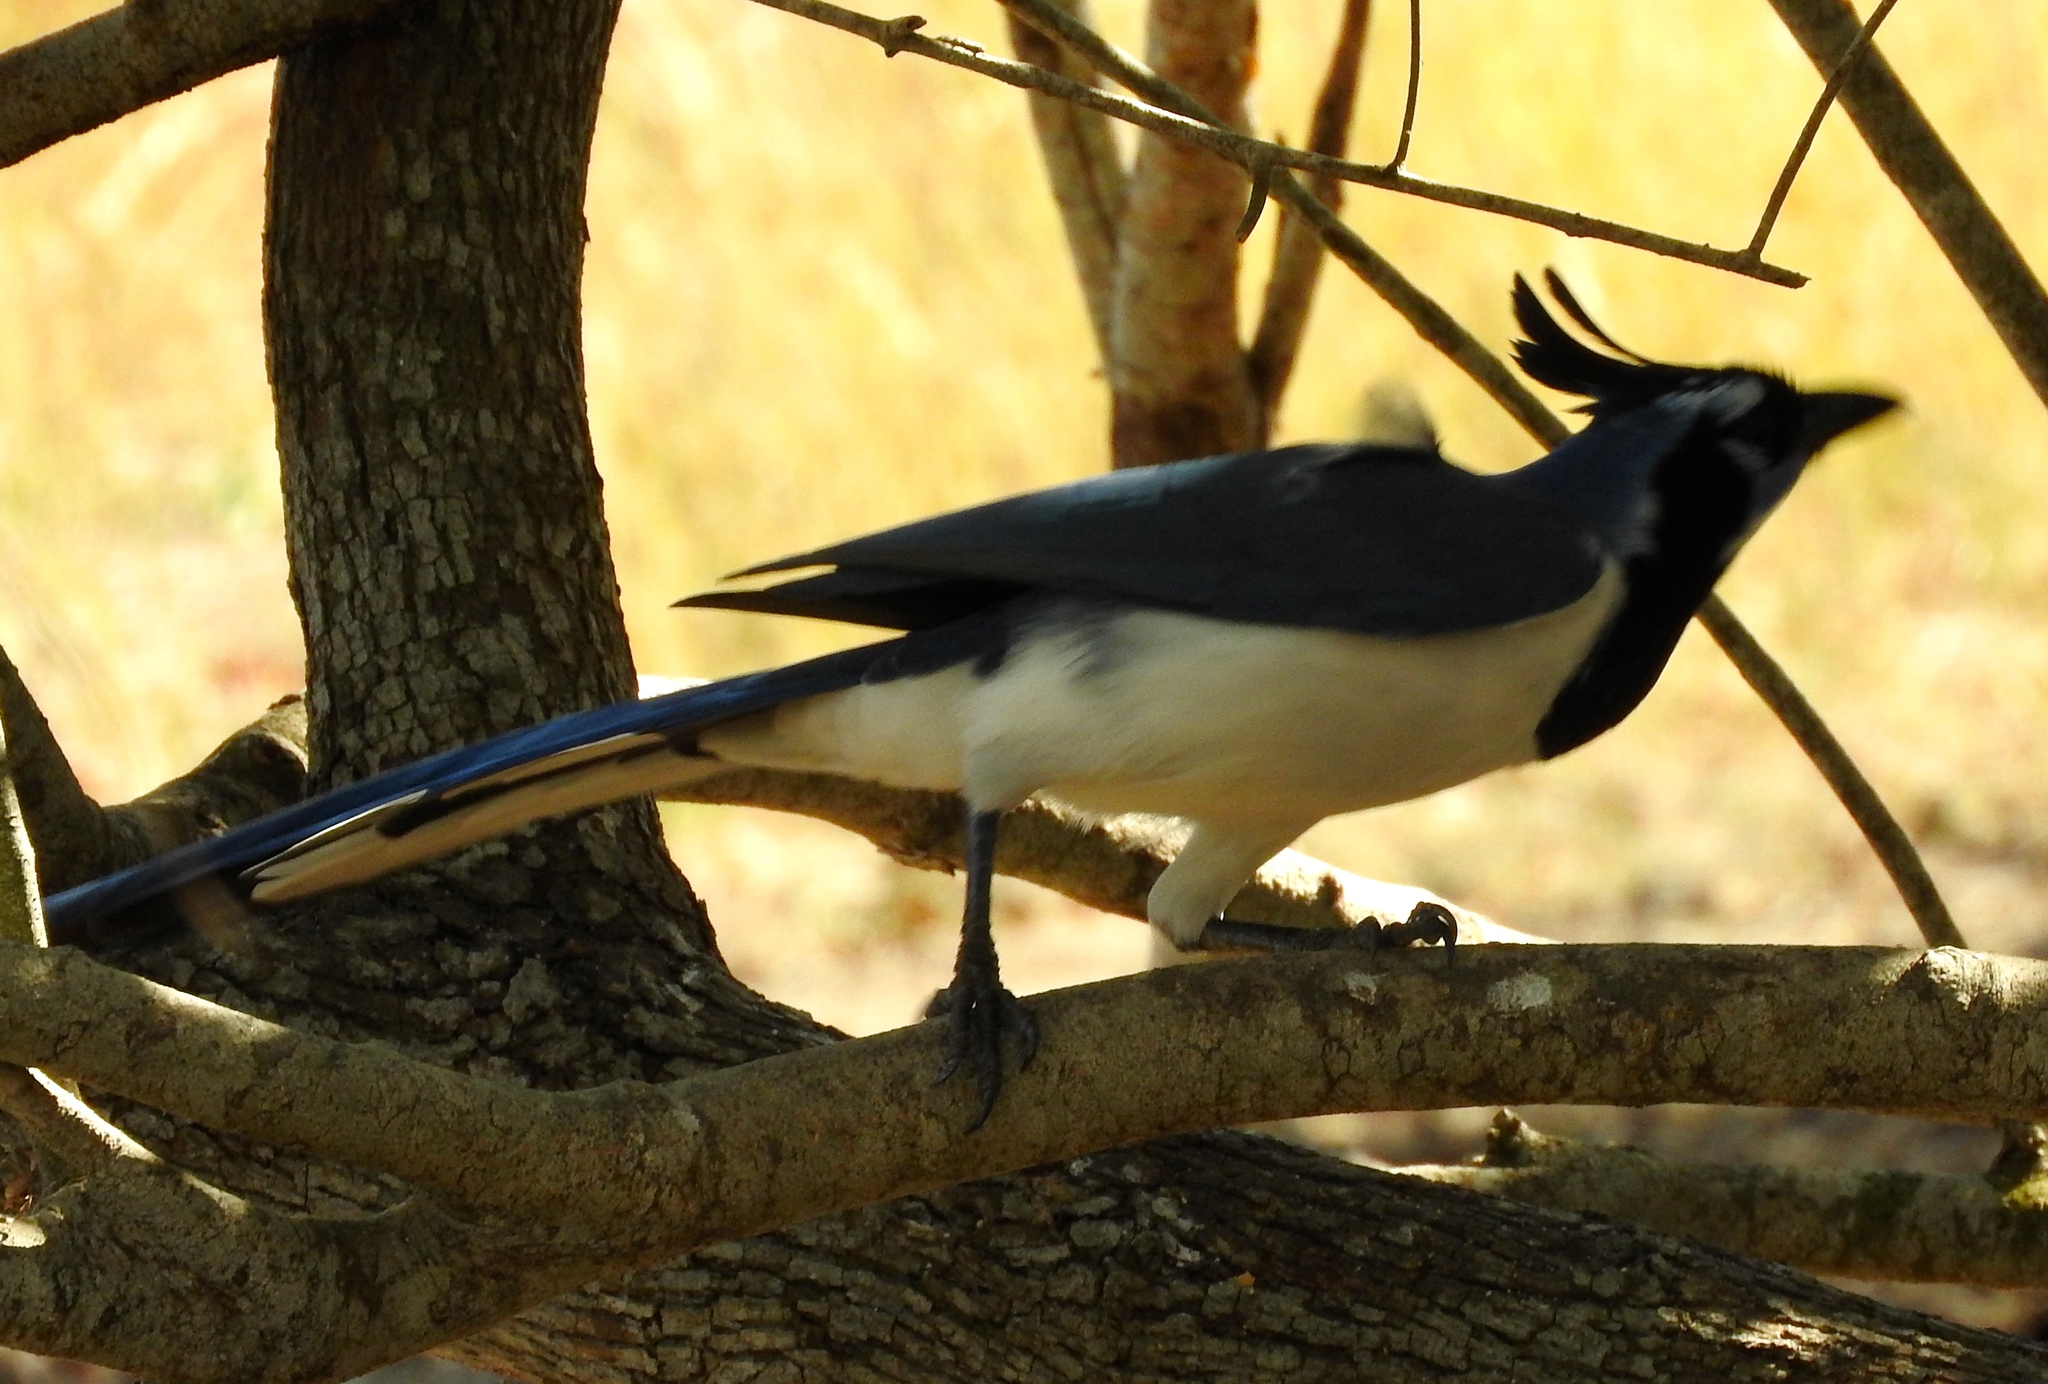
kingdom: Animalia
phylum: Chordata
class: Aves
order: Passeriformes
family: Corvidae
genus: Calocitta
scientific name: Calocitta colliei
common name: Black-throated magpie-jay
